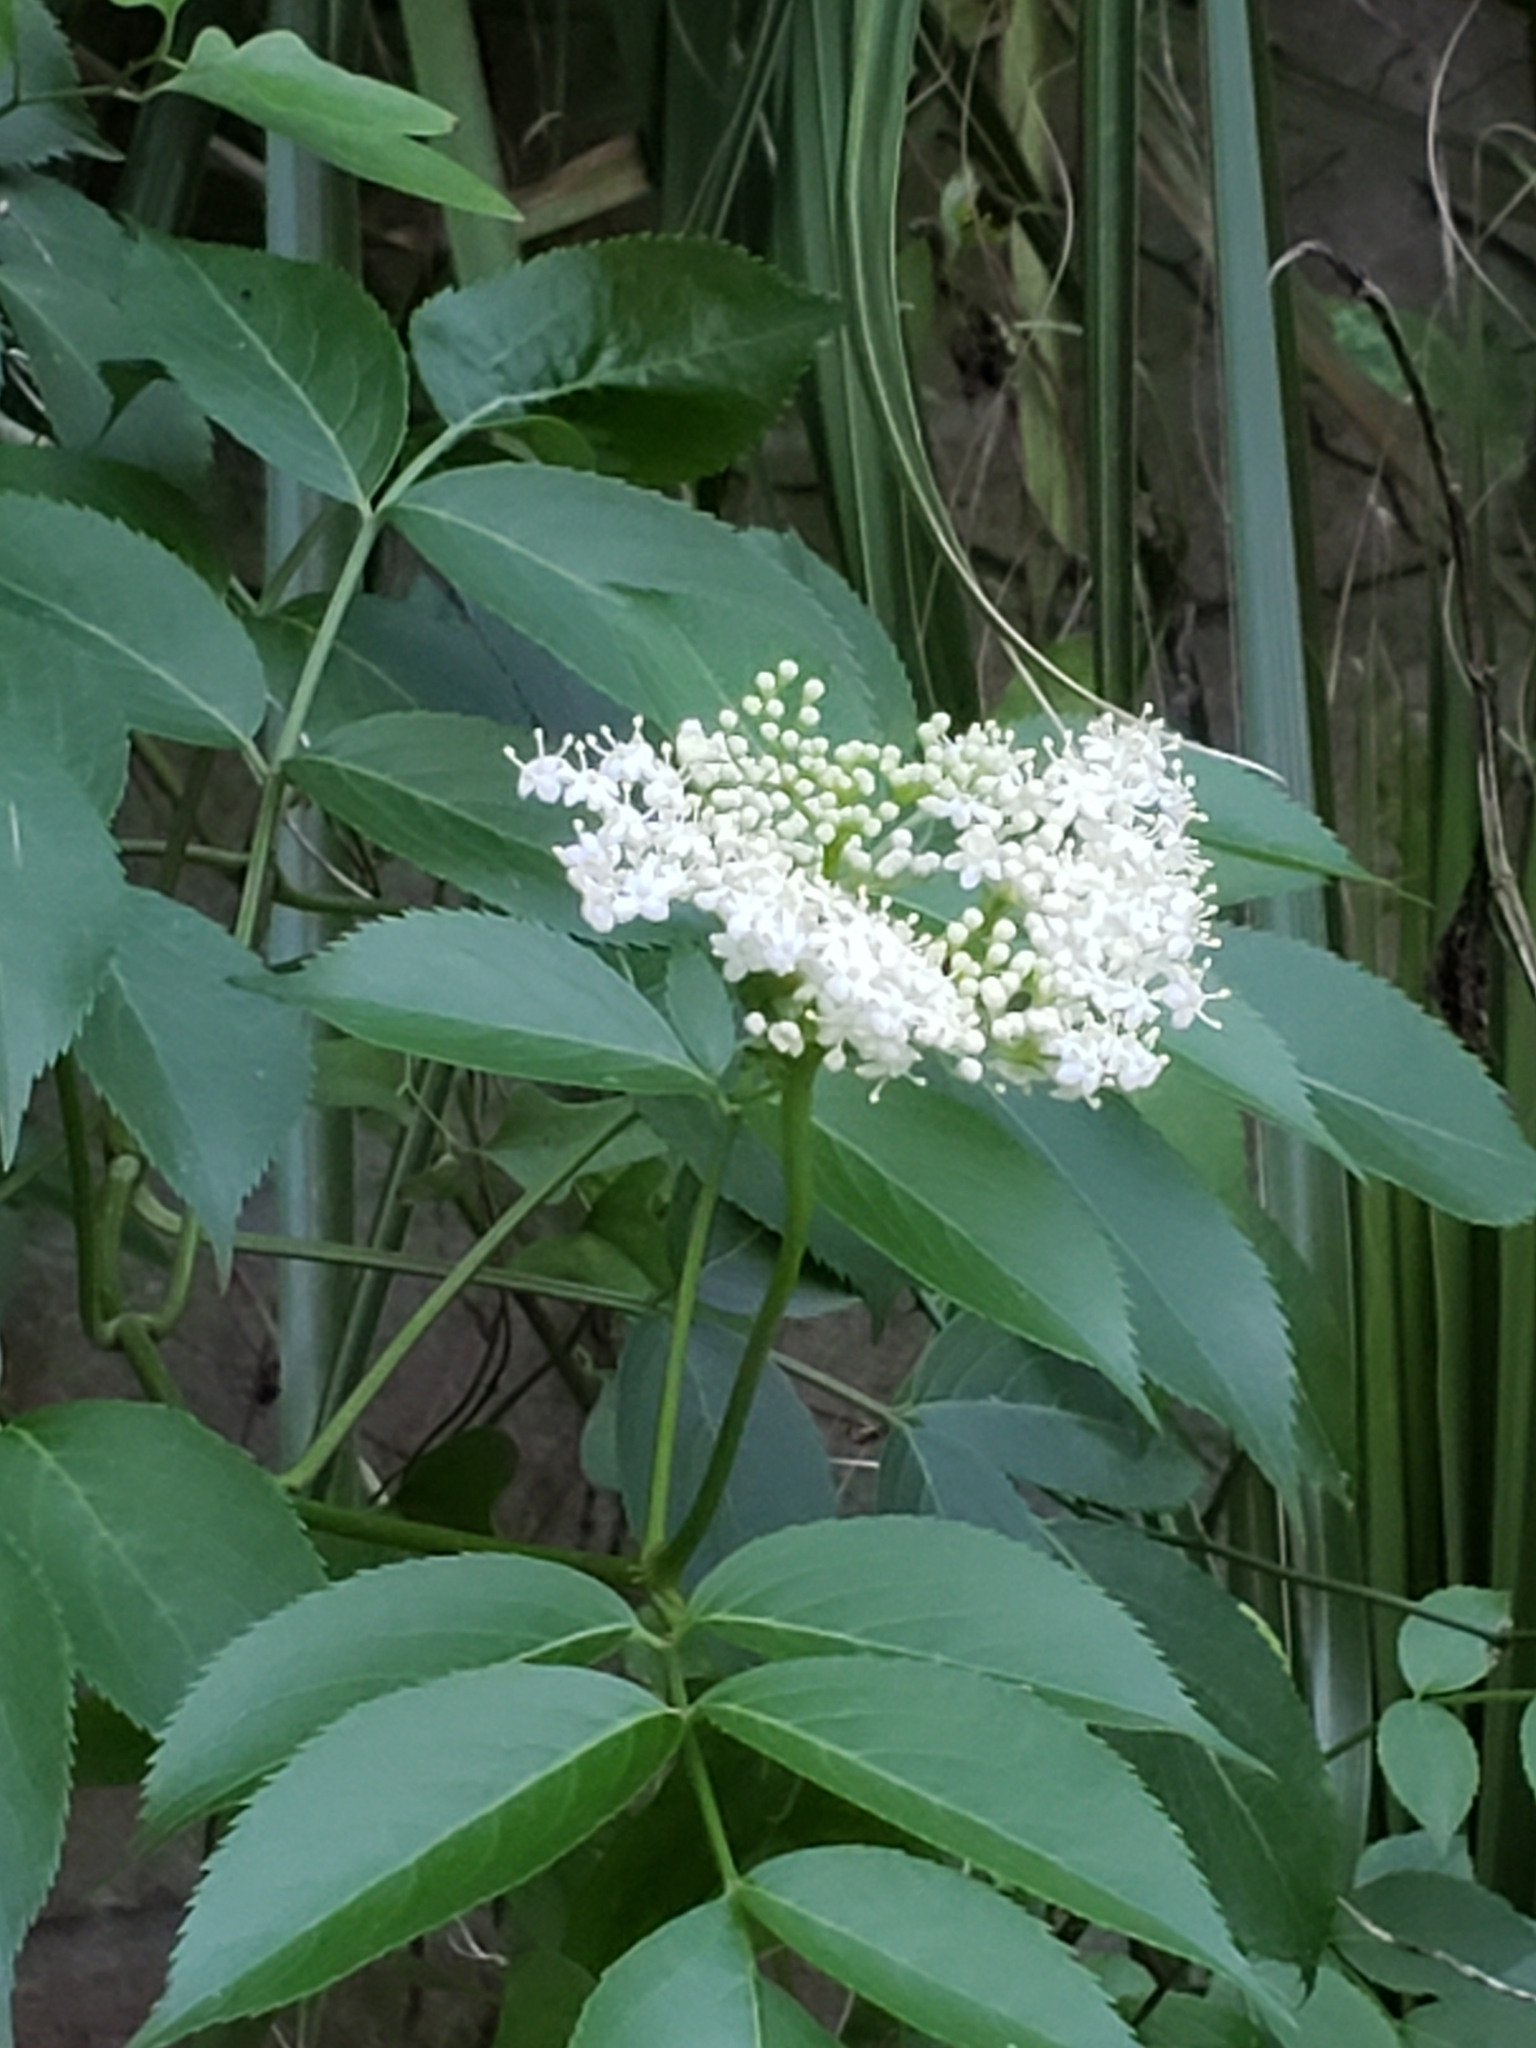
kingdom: Plantae
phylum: Tracheophyta
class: Magnoliopsida
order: Dipsacales
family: Viburnaceae
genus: Sambucus
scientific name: Sambucus canadensis
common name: American elder
